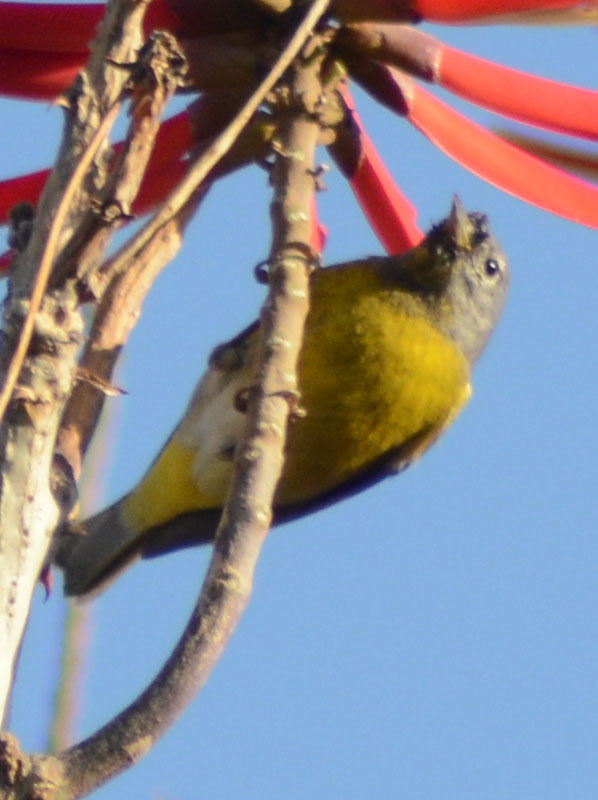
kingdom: Animalia
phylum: Chordata
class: Aves
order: Passeriformes
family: Parulidae
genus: Leiothlypis
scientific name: Leiothlypis ruficapilla
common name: Nashville warbler
